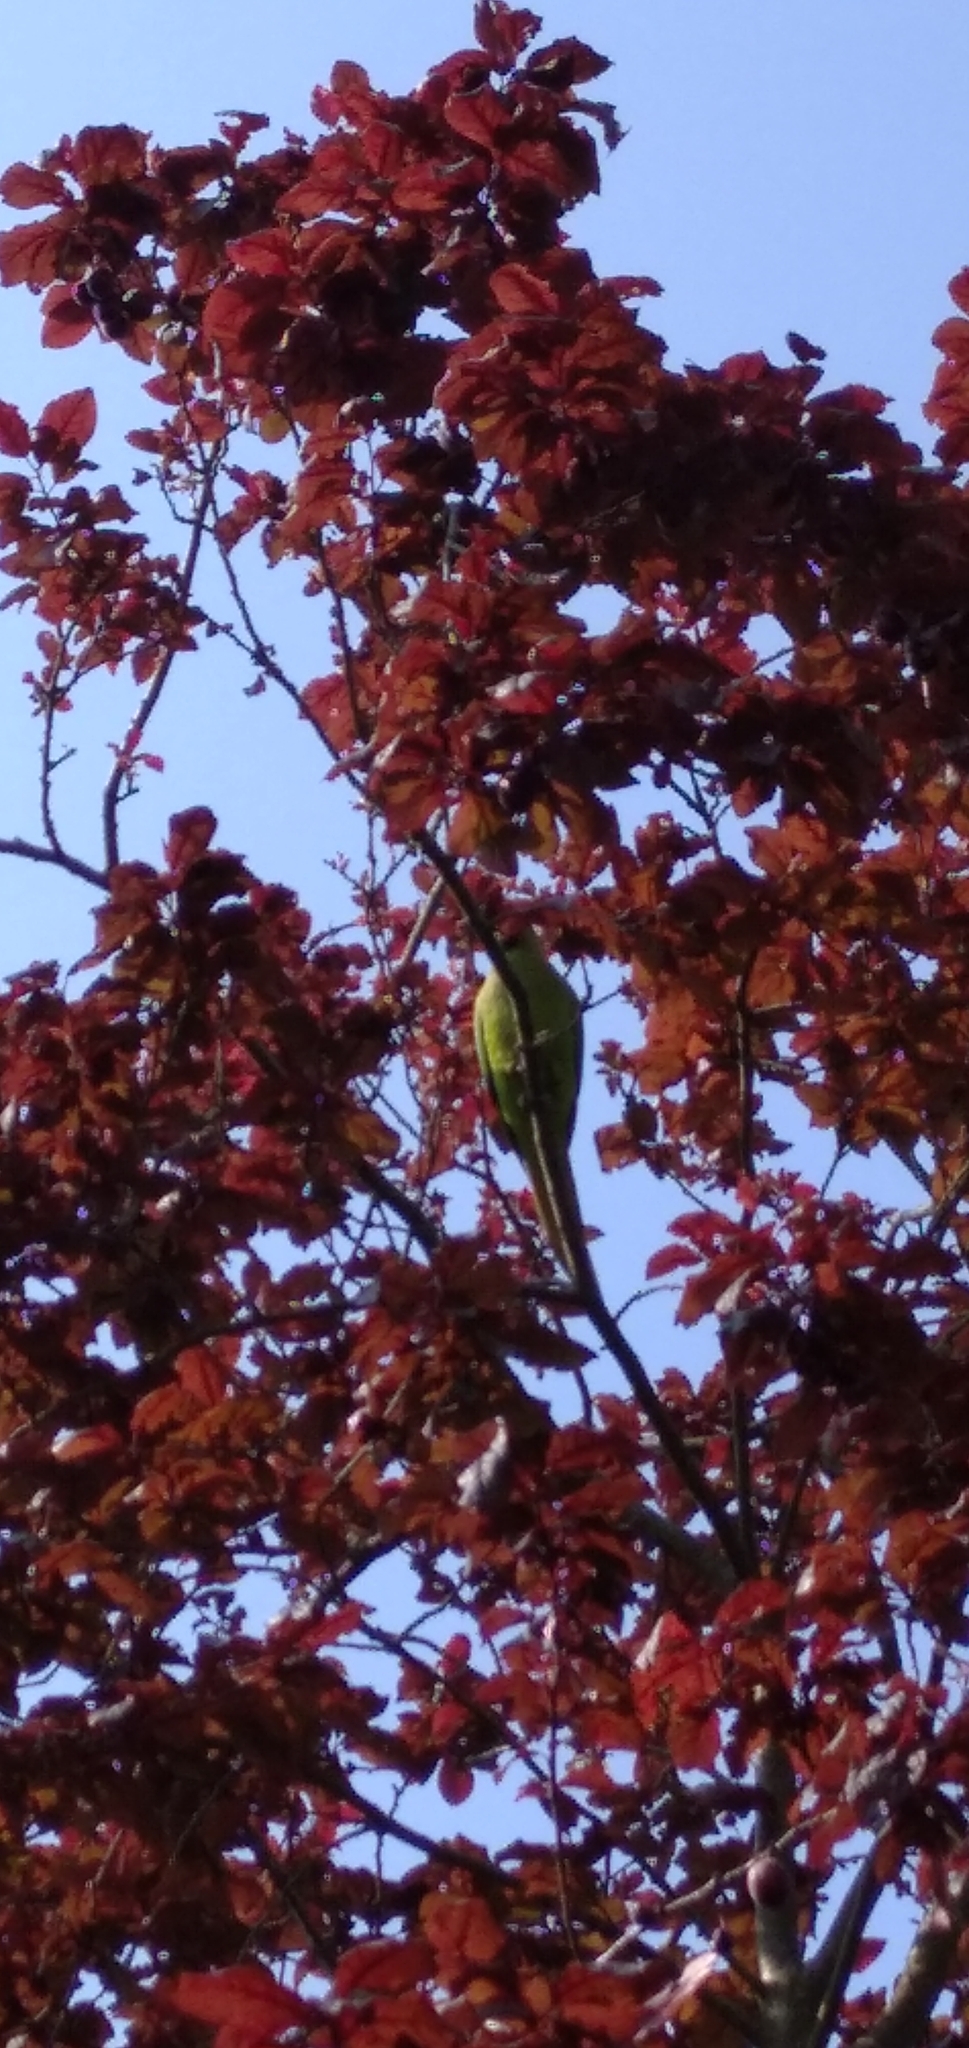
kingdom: Animalia
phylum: Chordata
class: Aves
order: Psittaciformes
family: Psittacidae
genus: Psittacula
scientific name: Psittacula krameri
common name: Rose-ringed parakeet
